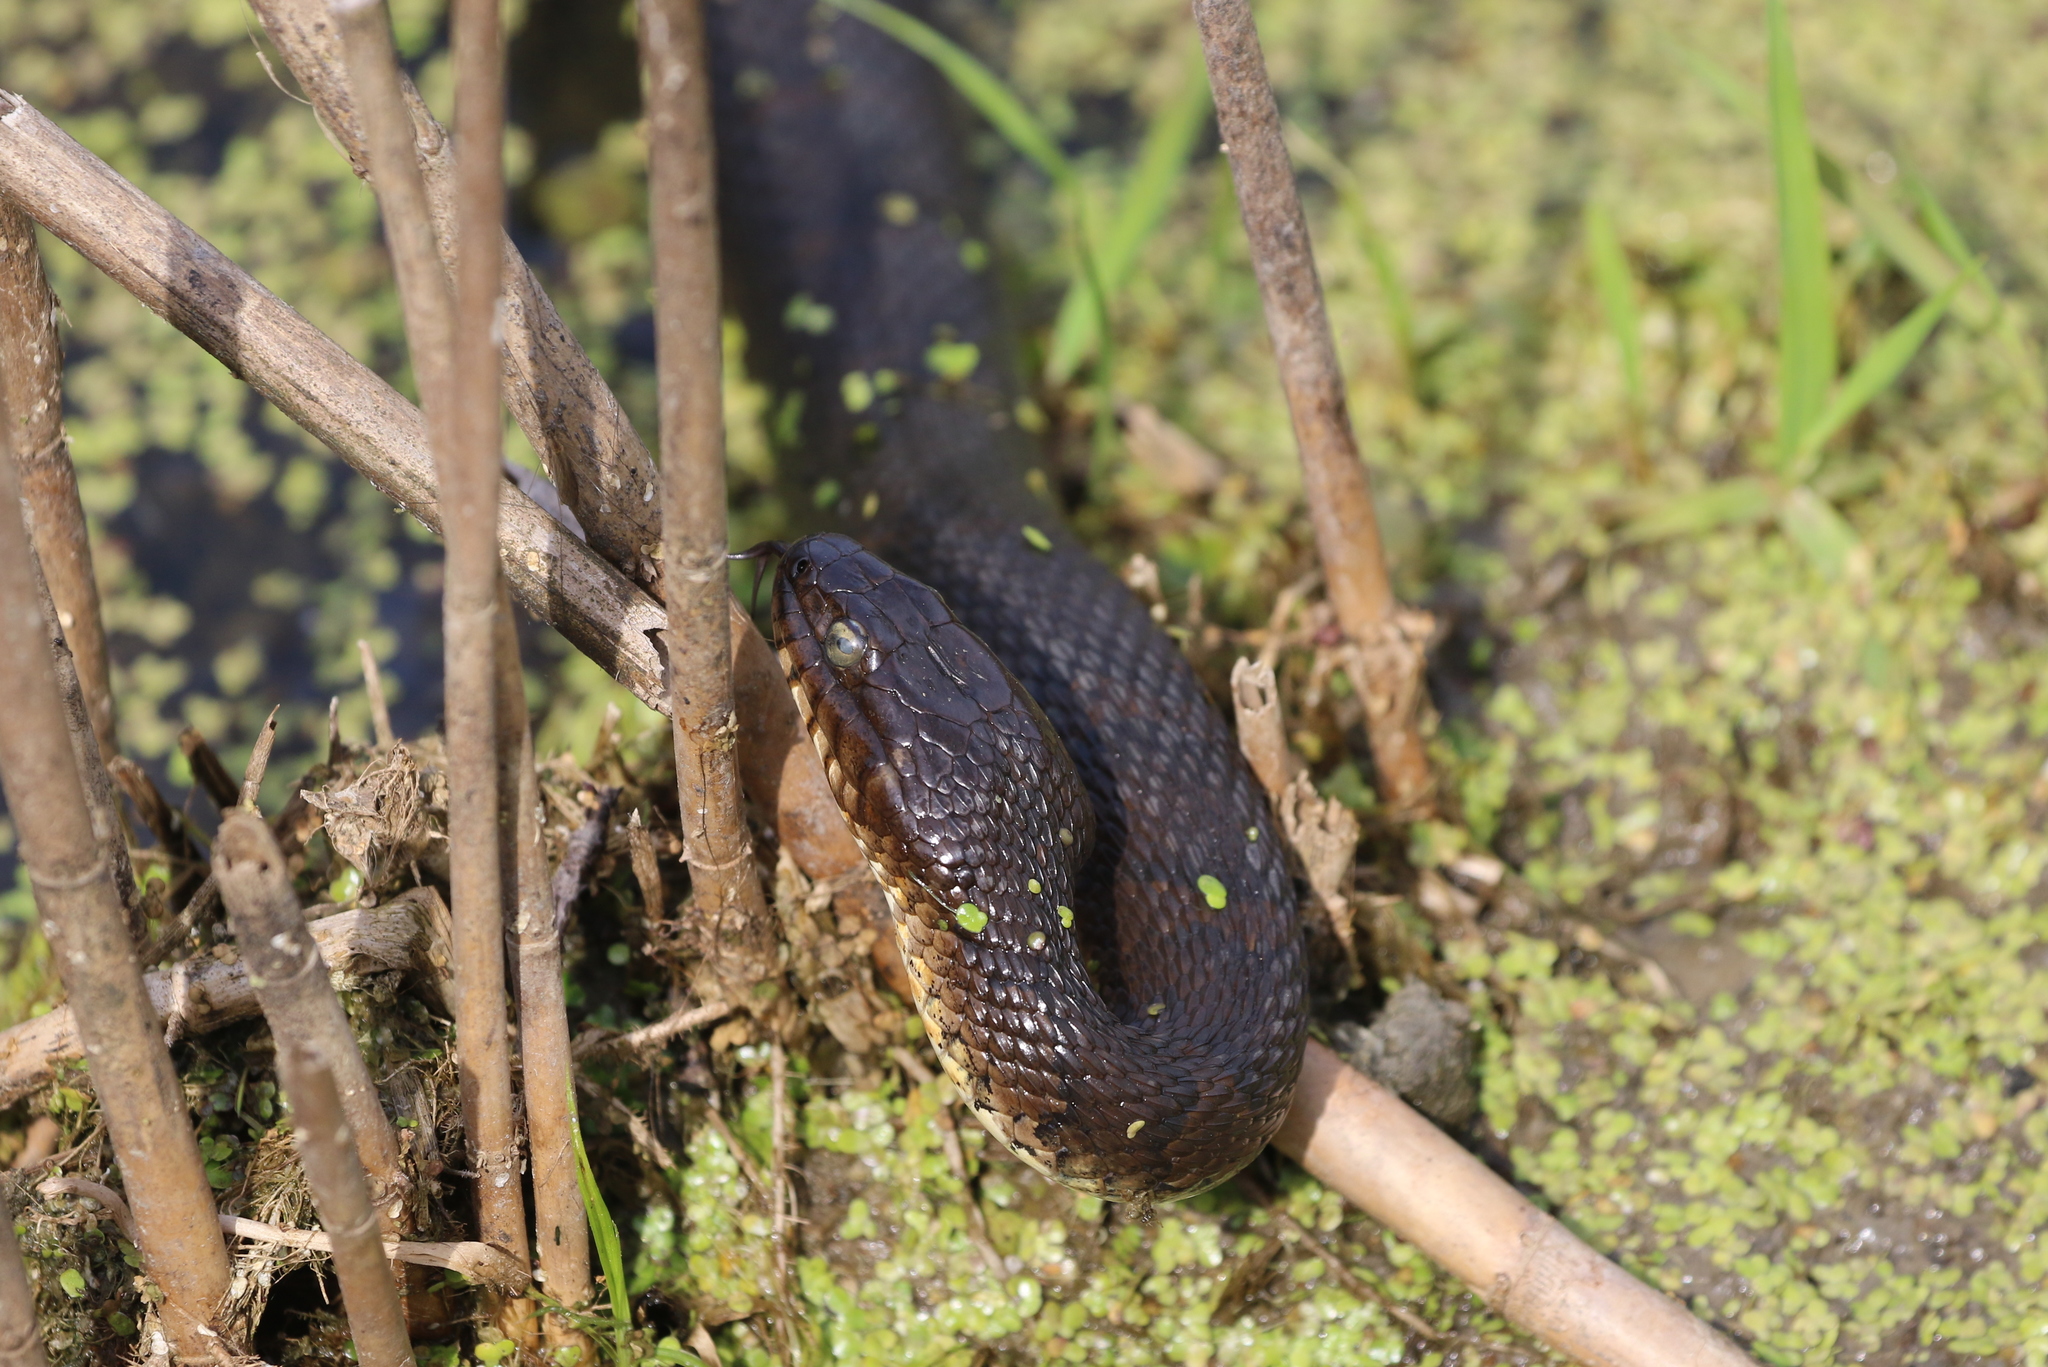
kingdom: Animalia
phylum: Chordata
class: Squamata
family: Colubridae
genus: Nerodia
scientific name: Nerodia sipedon
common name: Northern water snake
